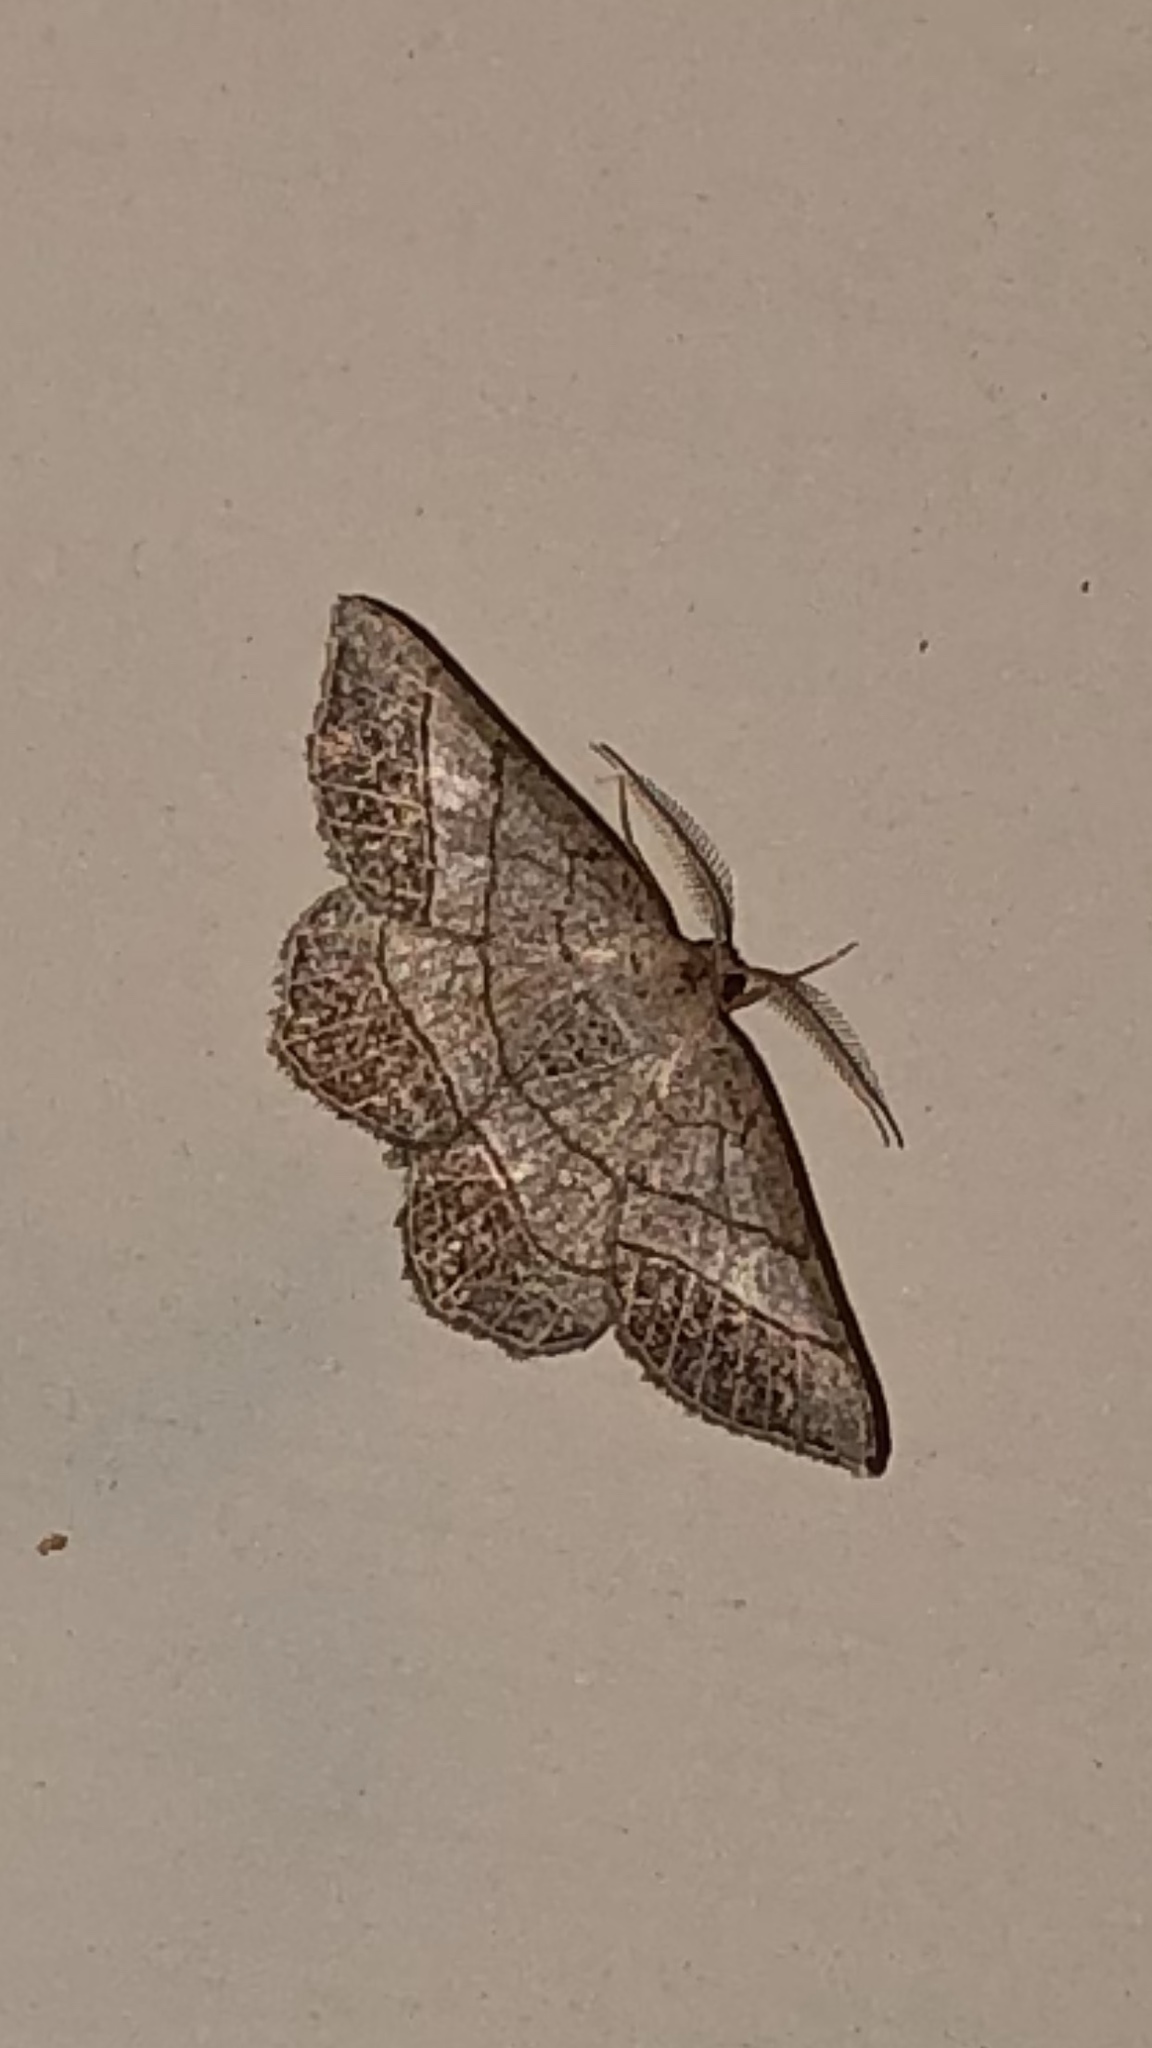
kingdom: Animalia
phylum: Arthropoda
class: Insecta
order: Lepidoptera
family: Geometridae
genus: Eumacaria
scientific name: Eumacaria madopata
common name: Brown-bordered geometer
